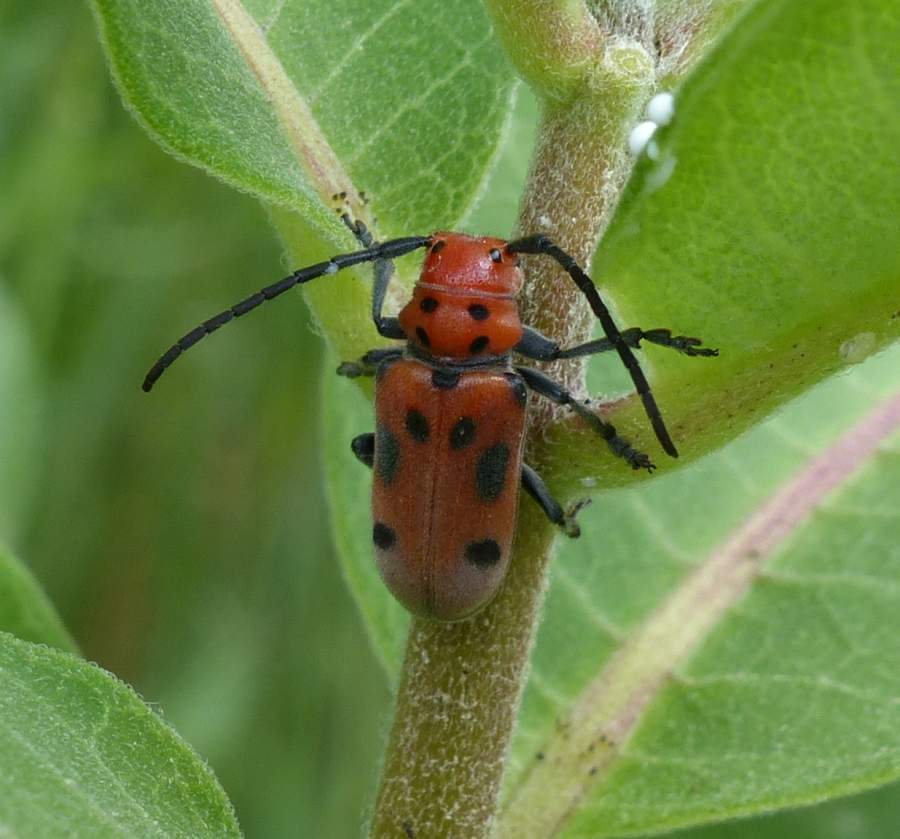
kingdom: Animalia
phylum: Arthropoda
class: Insecta
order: Coleoptera
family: Cerambycidae
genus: Tetraopes
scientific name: Tetraopes tetrophthalmus
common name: Red milkweed beetle
